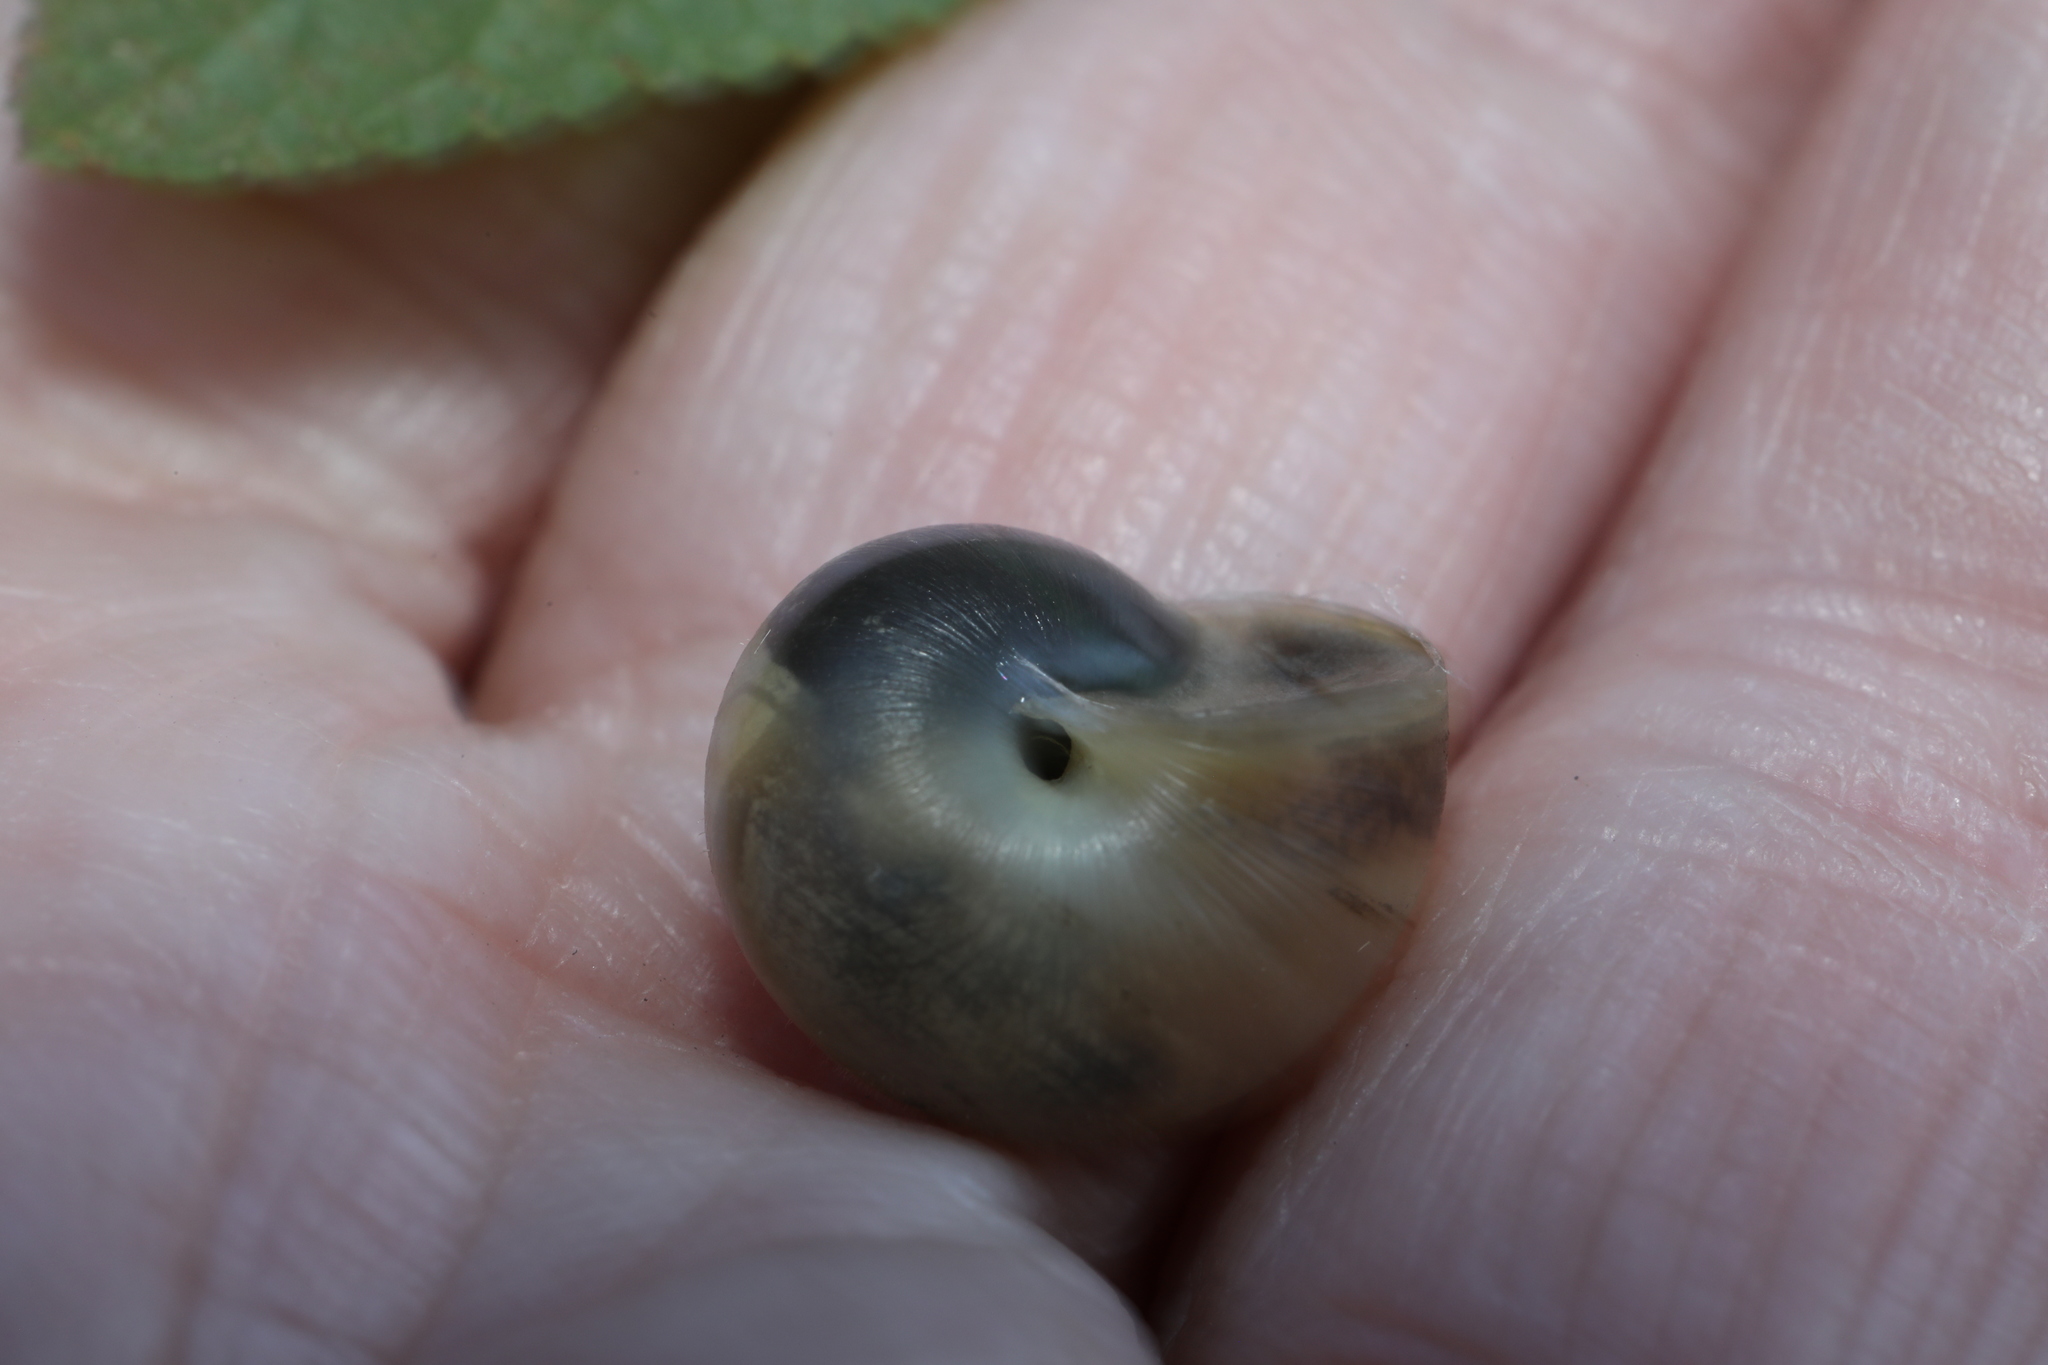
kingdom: Animalia
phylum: Mollusca
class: Gastropoda
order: Stylommatophora
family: Hygromiidae
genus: Monacha
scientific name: Monacha cantiana
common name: Kentish snail
